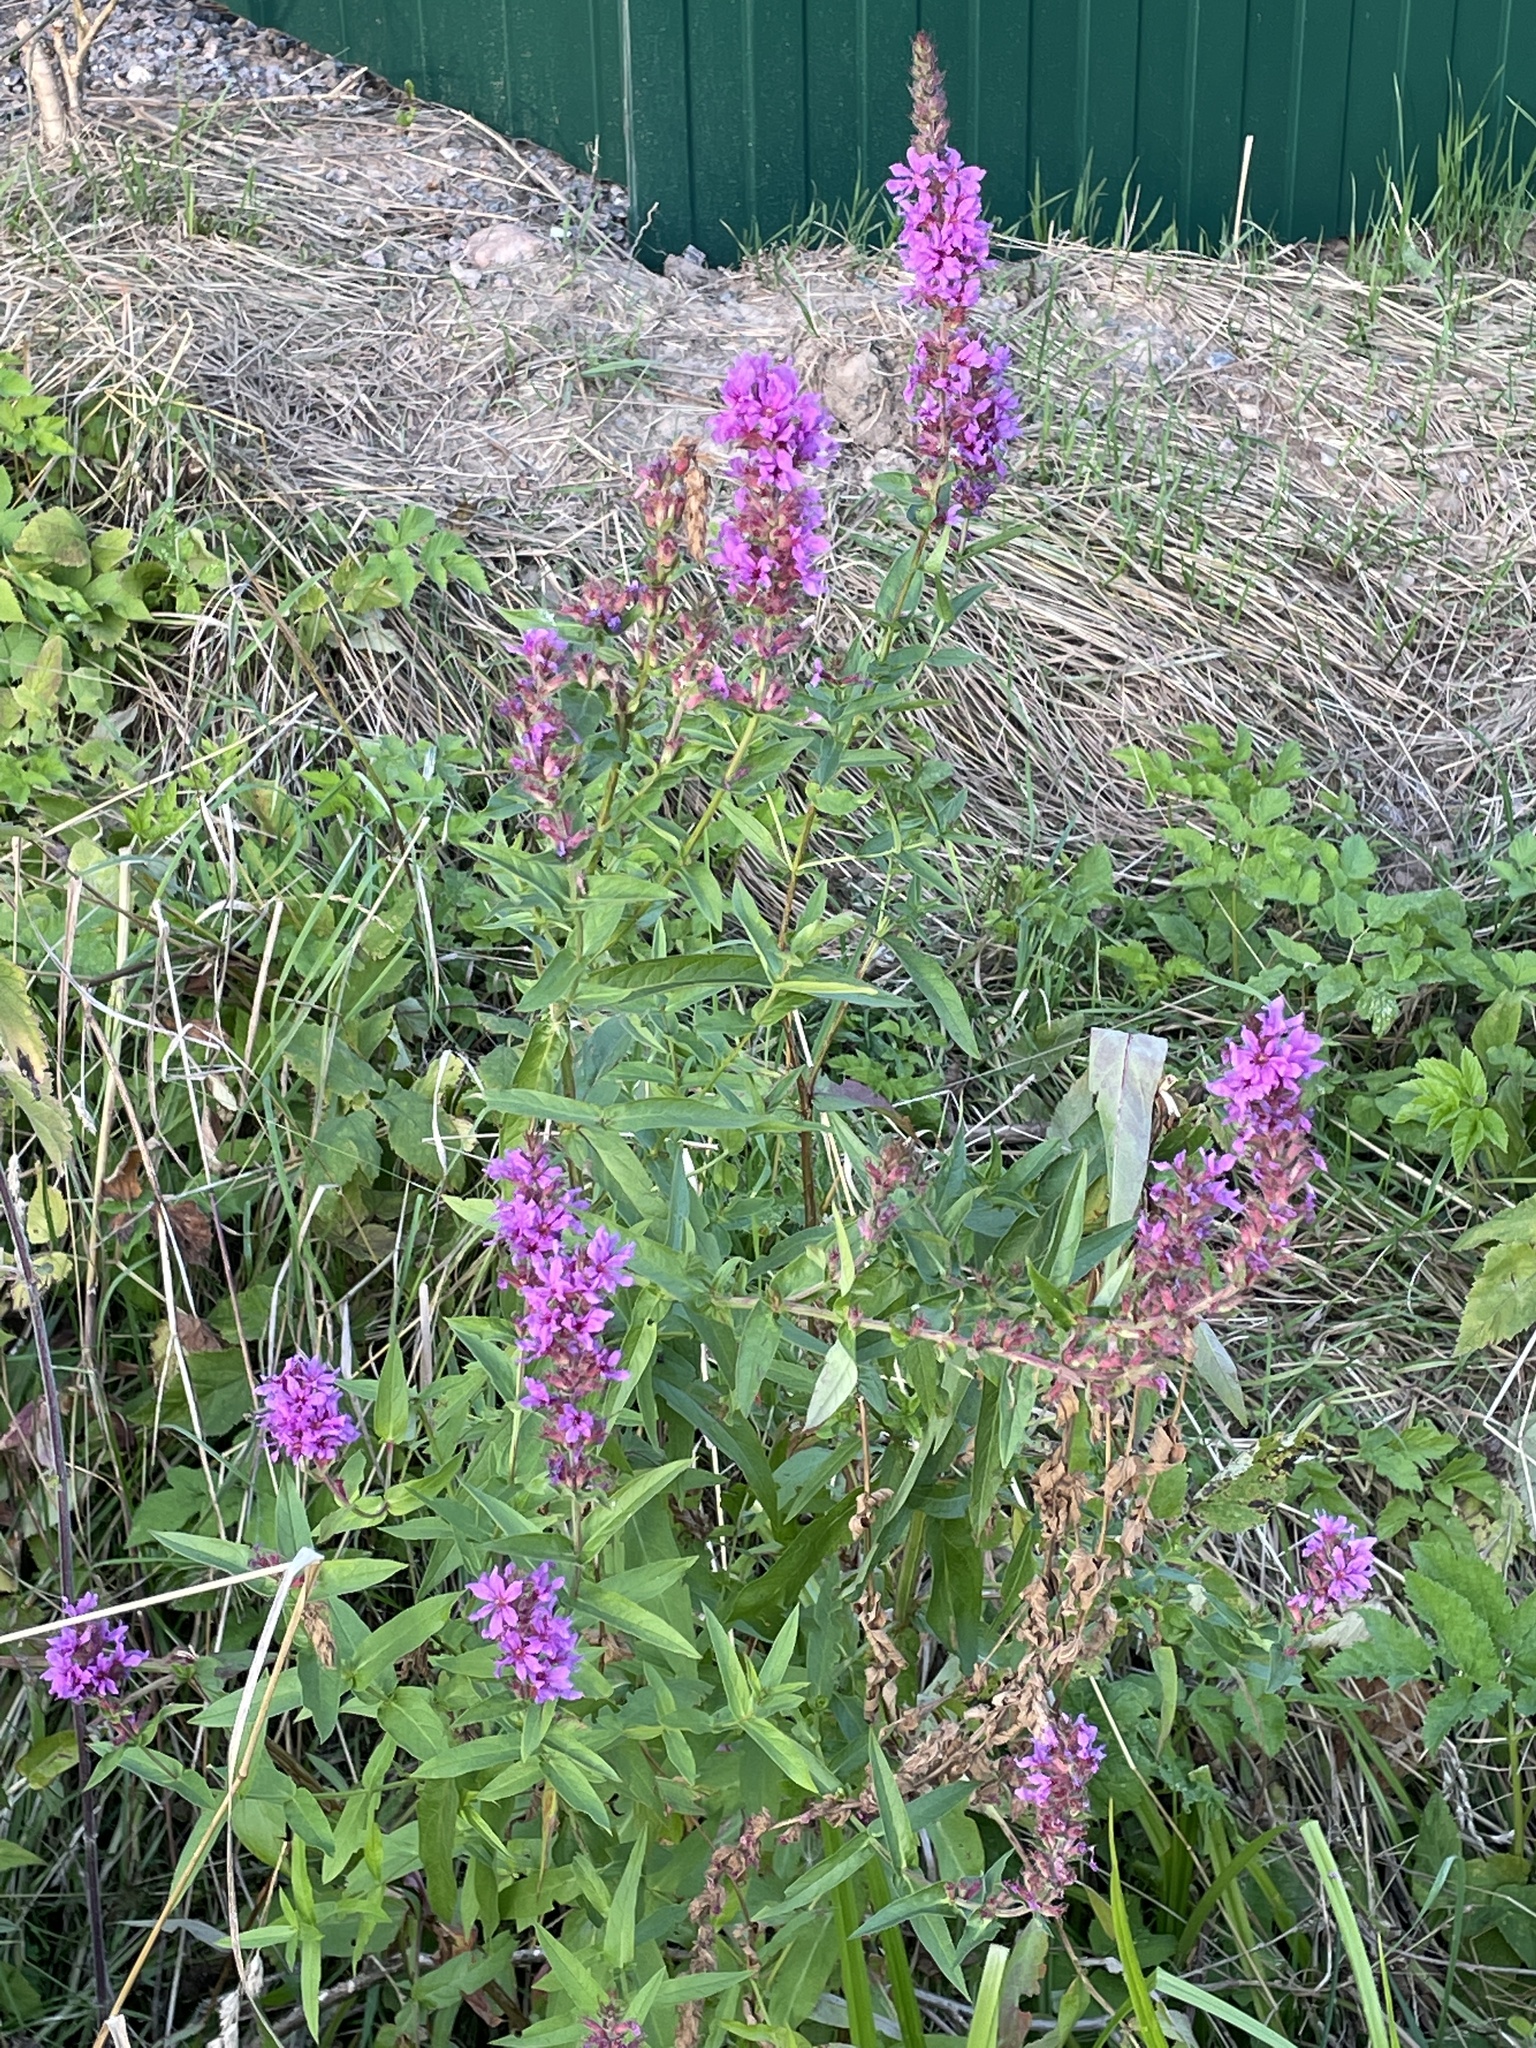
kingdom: Plantae
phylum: Tracheophyta
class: Magnoliopsida
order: Myrtales
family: Lythraceae
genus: Lythrum
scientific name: Lythrum salicaria
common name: Purple loosestrife
